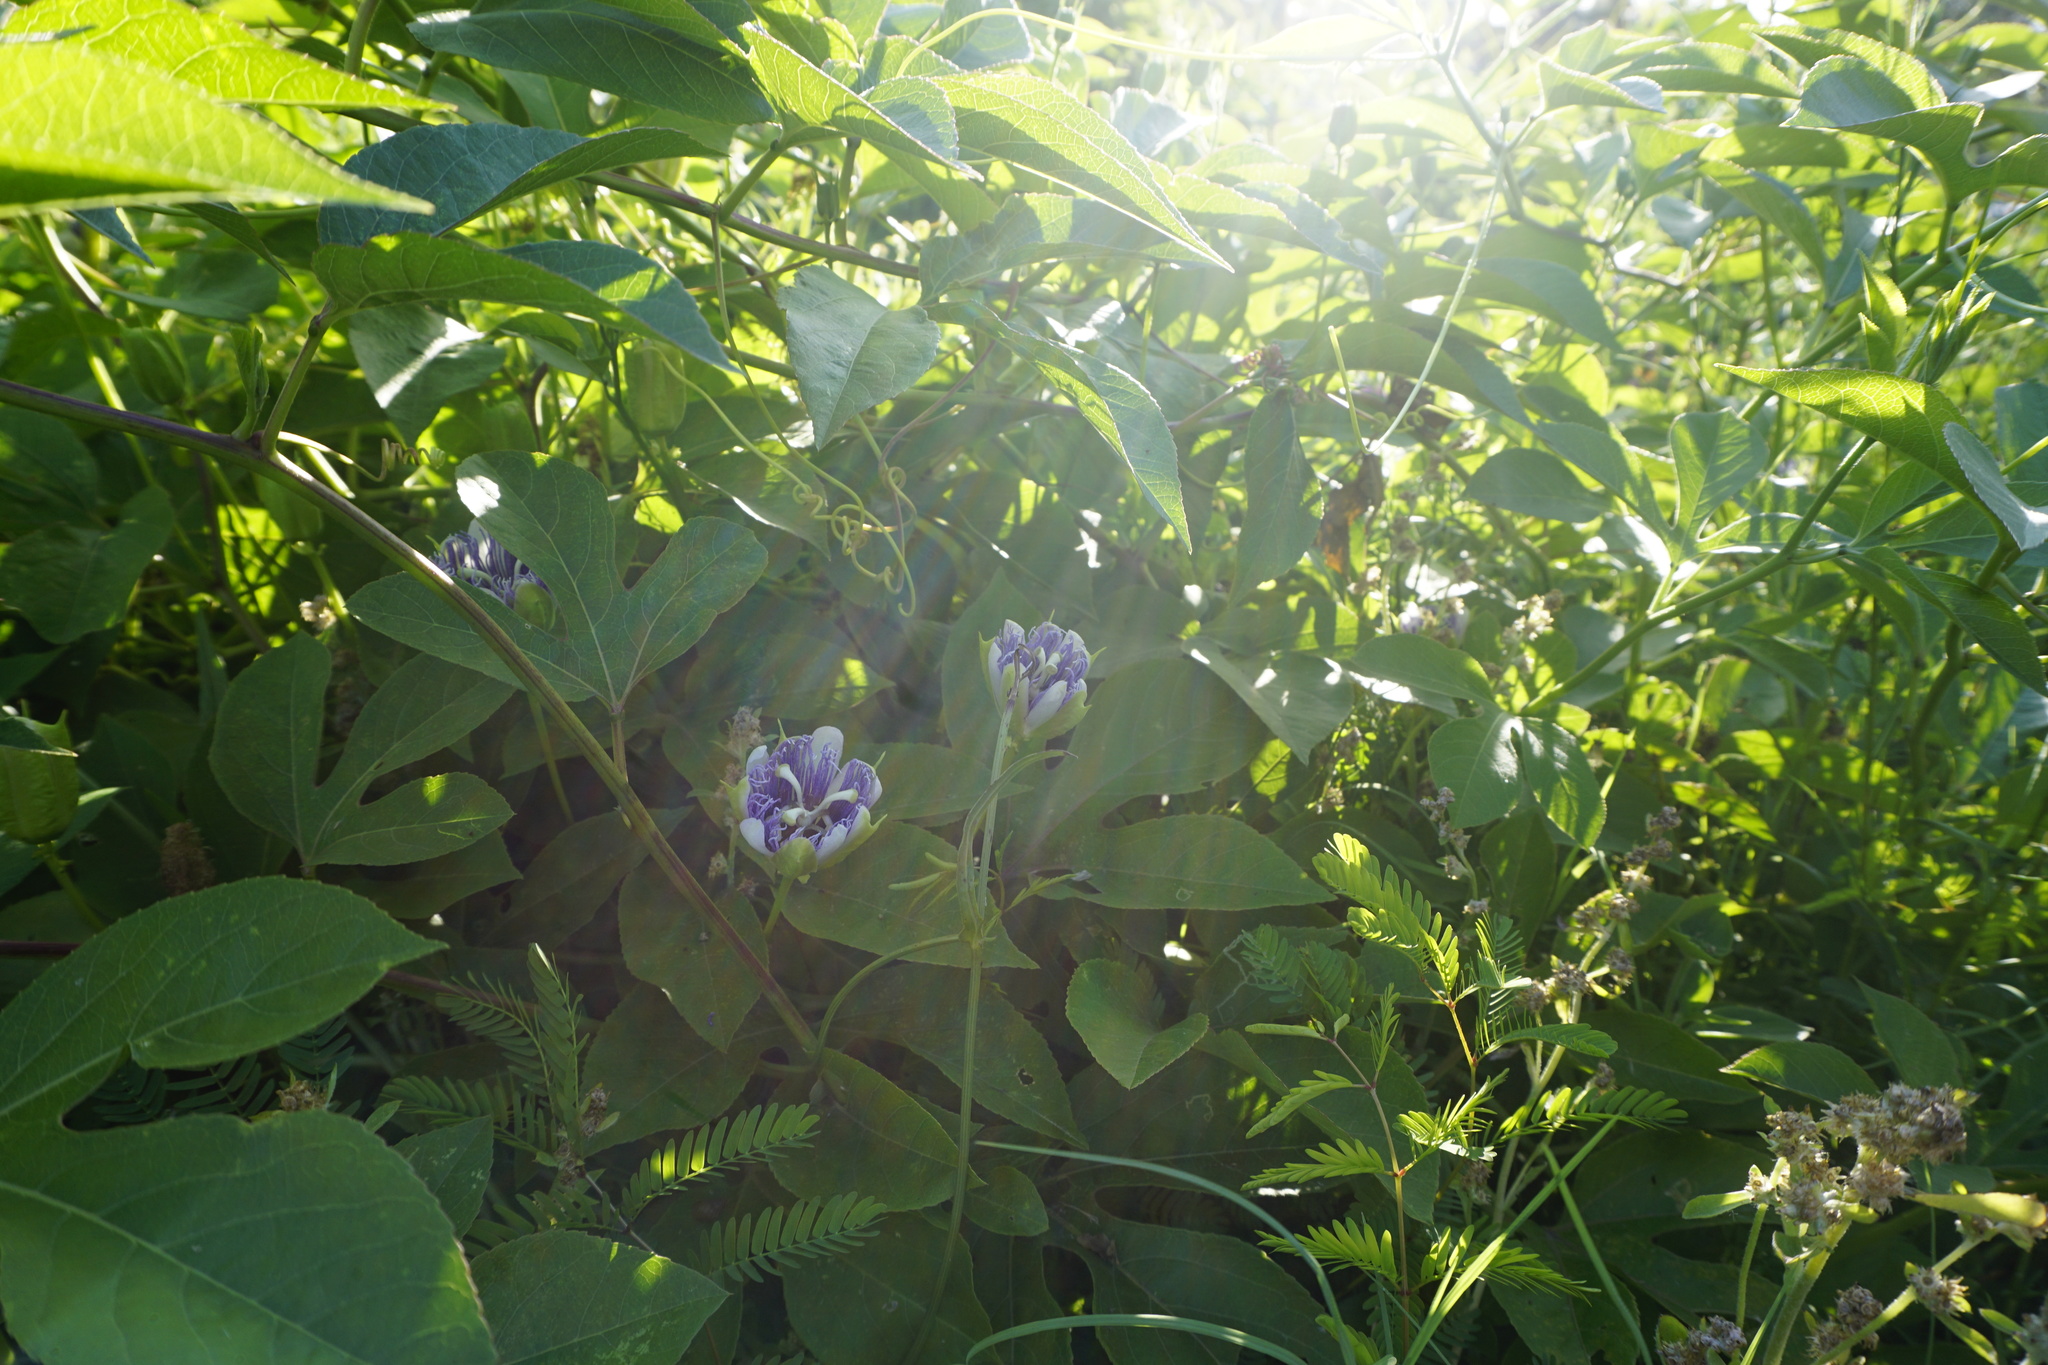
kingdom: Plantae
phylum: Tracheophyta
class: Magnoliopsida
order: Malpighiales
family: Passifloraceae
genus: Passiflora
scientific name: Passiflora incarnata
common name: Apricot-vine
